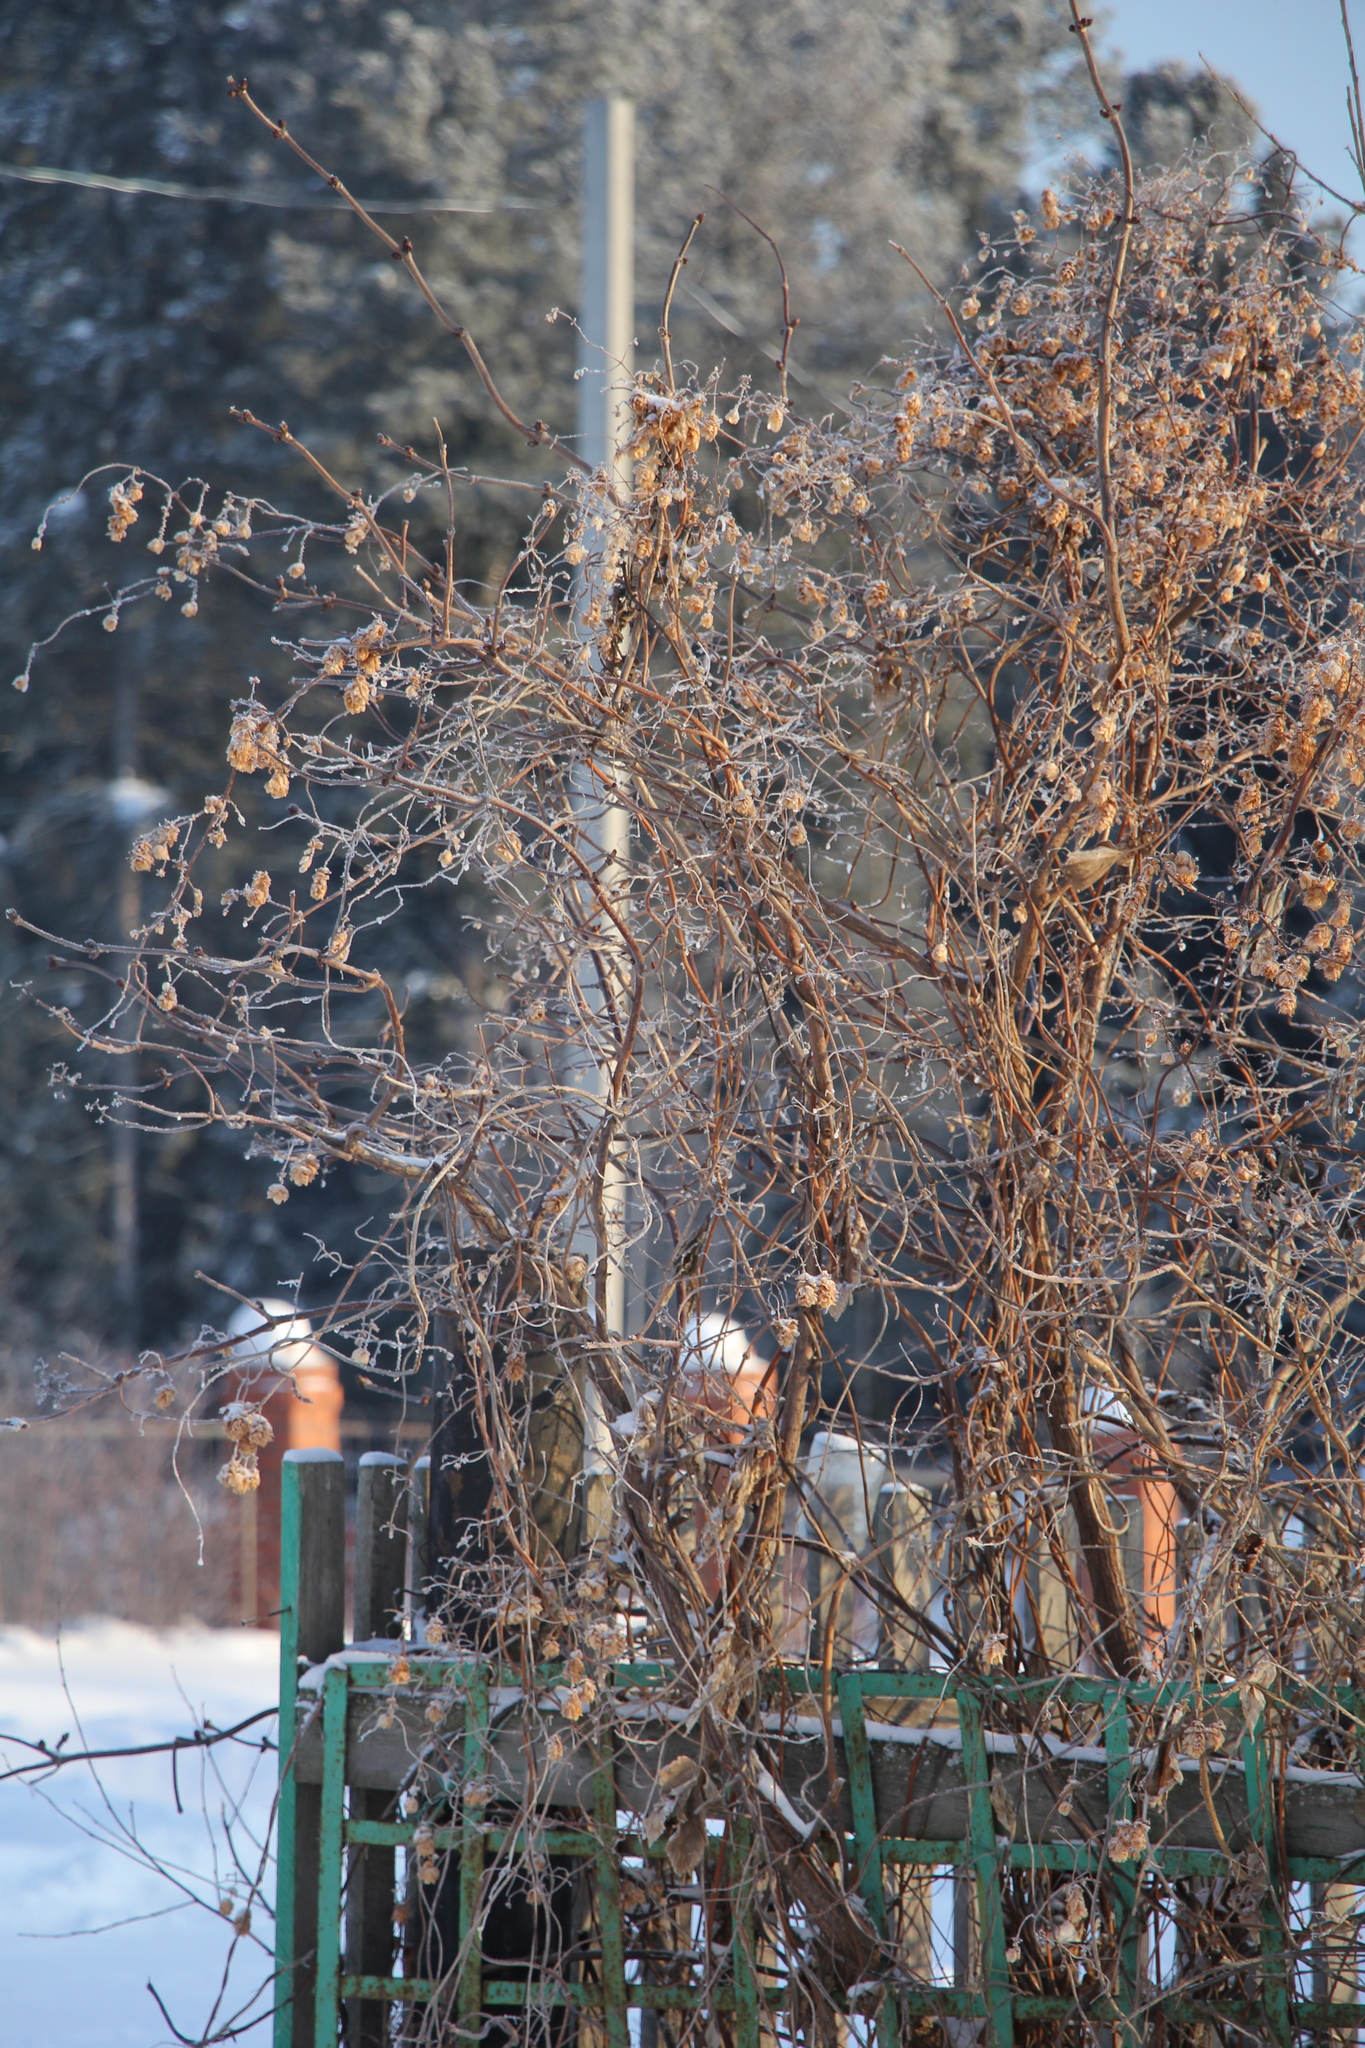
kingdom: Plantae
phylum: Tracheophyta
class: Magnoliopsida
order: Rosales
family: Cannabaceae
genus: Humulus
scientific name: Humulus lupulus
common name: Hop
